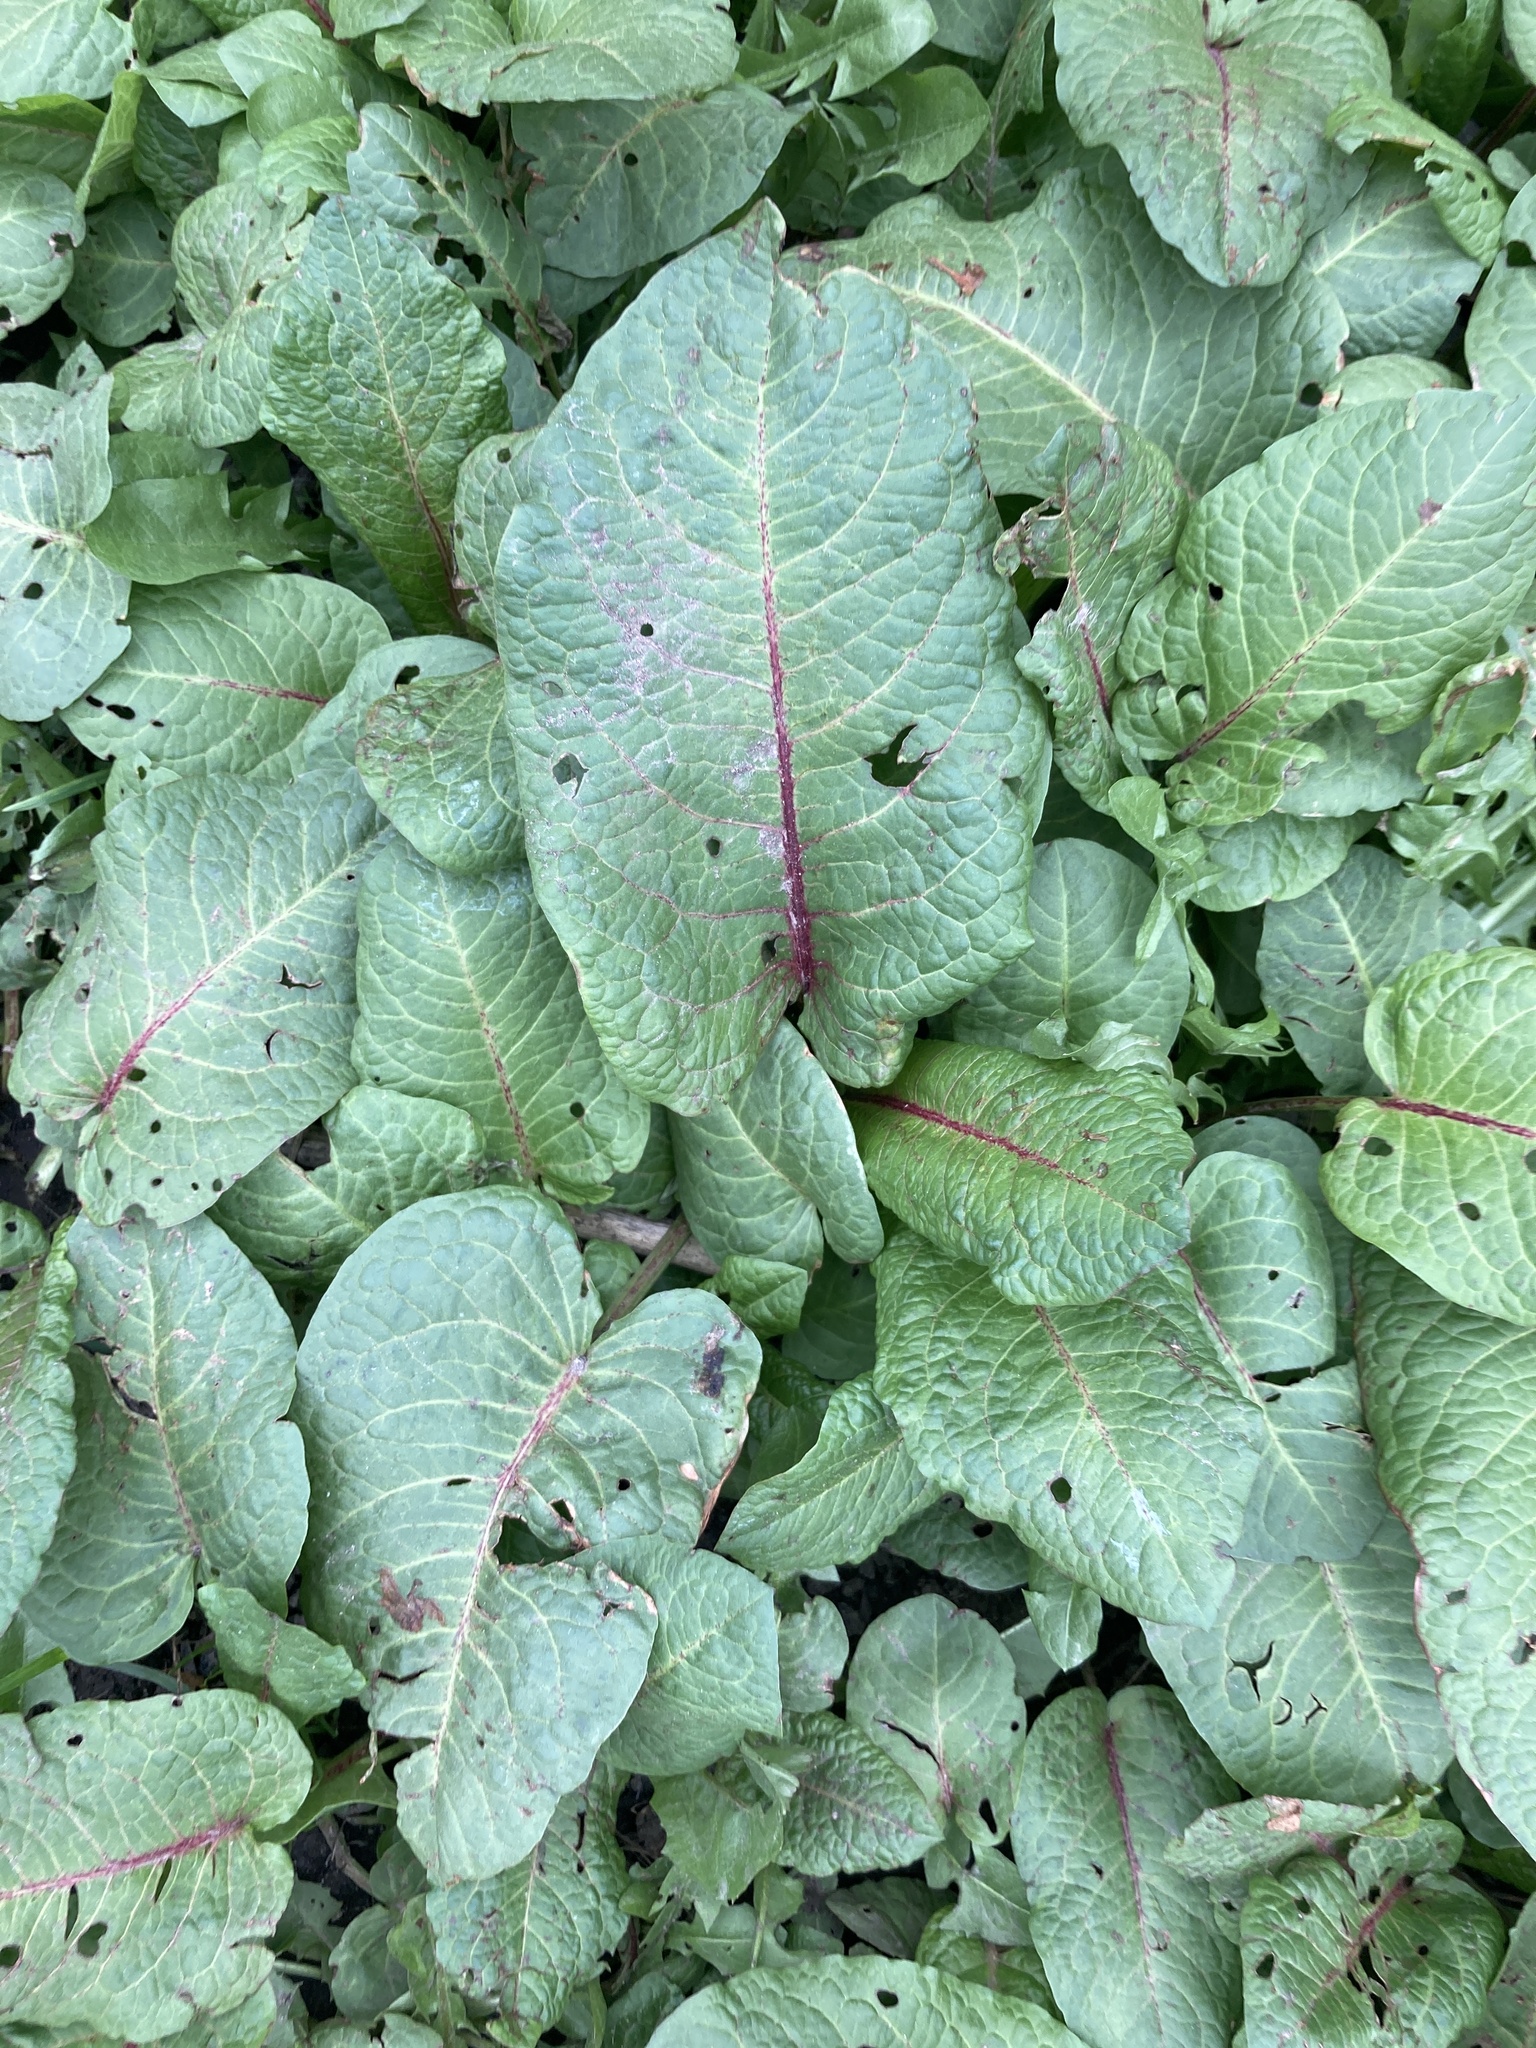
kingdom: Plantae
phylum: Tracheophyta
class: Magnoliopsida
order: Caryophyllales
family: Polygonaceae
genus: Rumex
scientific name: Rumex obtusifolius
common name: Bitter dock
